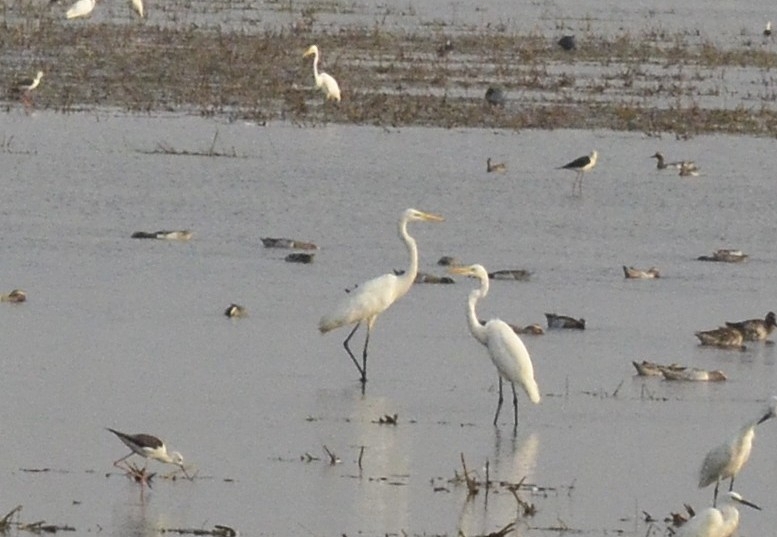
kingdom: Animalia
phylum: Chordata
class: Aves
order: Pelecaniformes
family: Ardeidae
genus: Ardea
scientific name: Ardea alba
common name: Great egret
